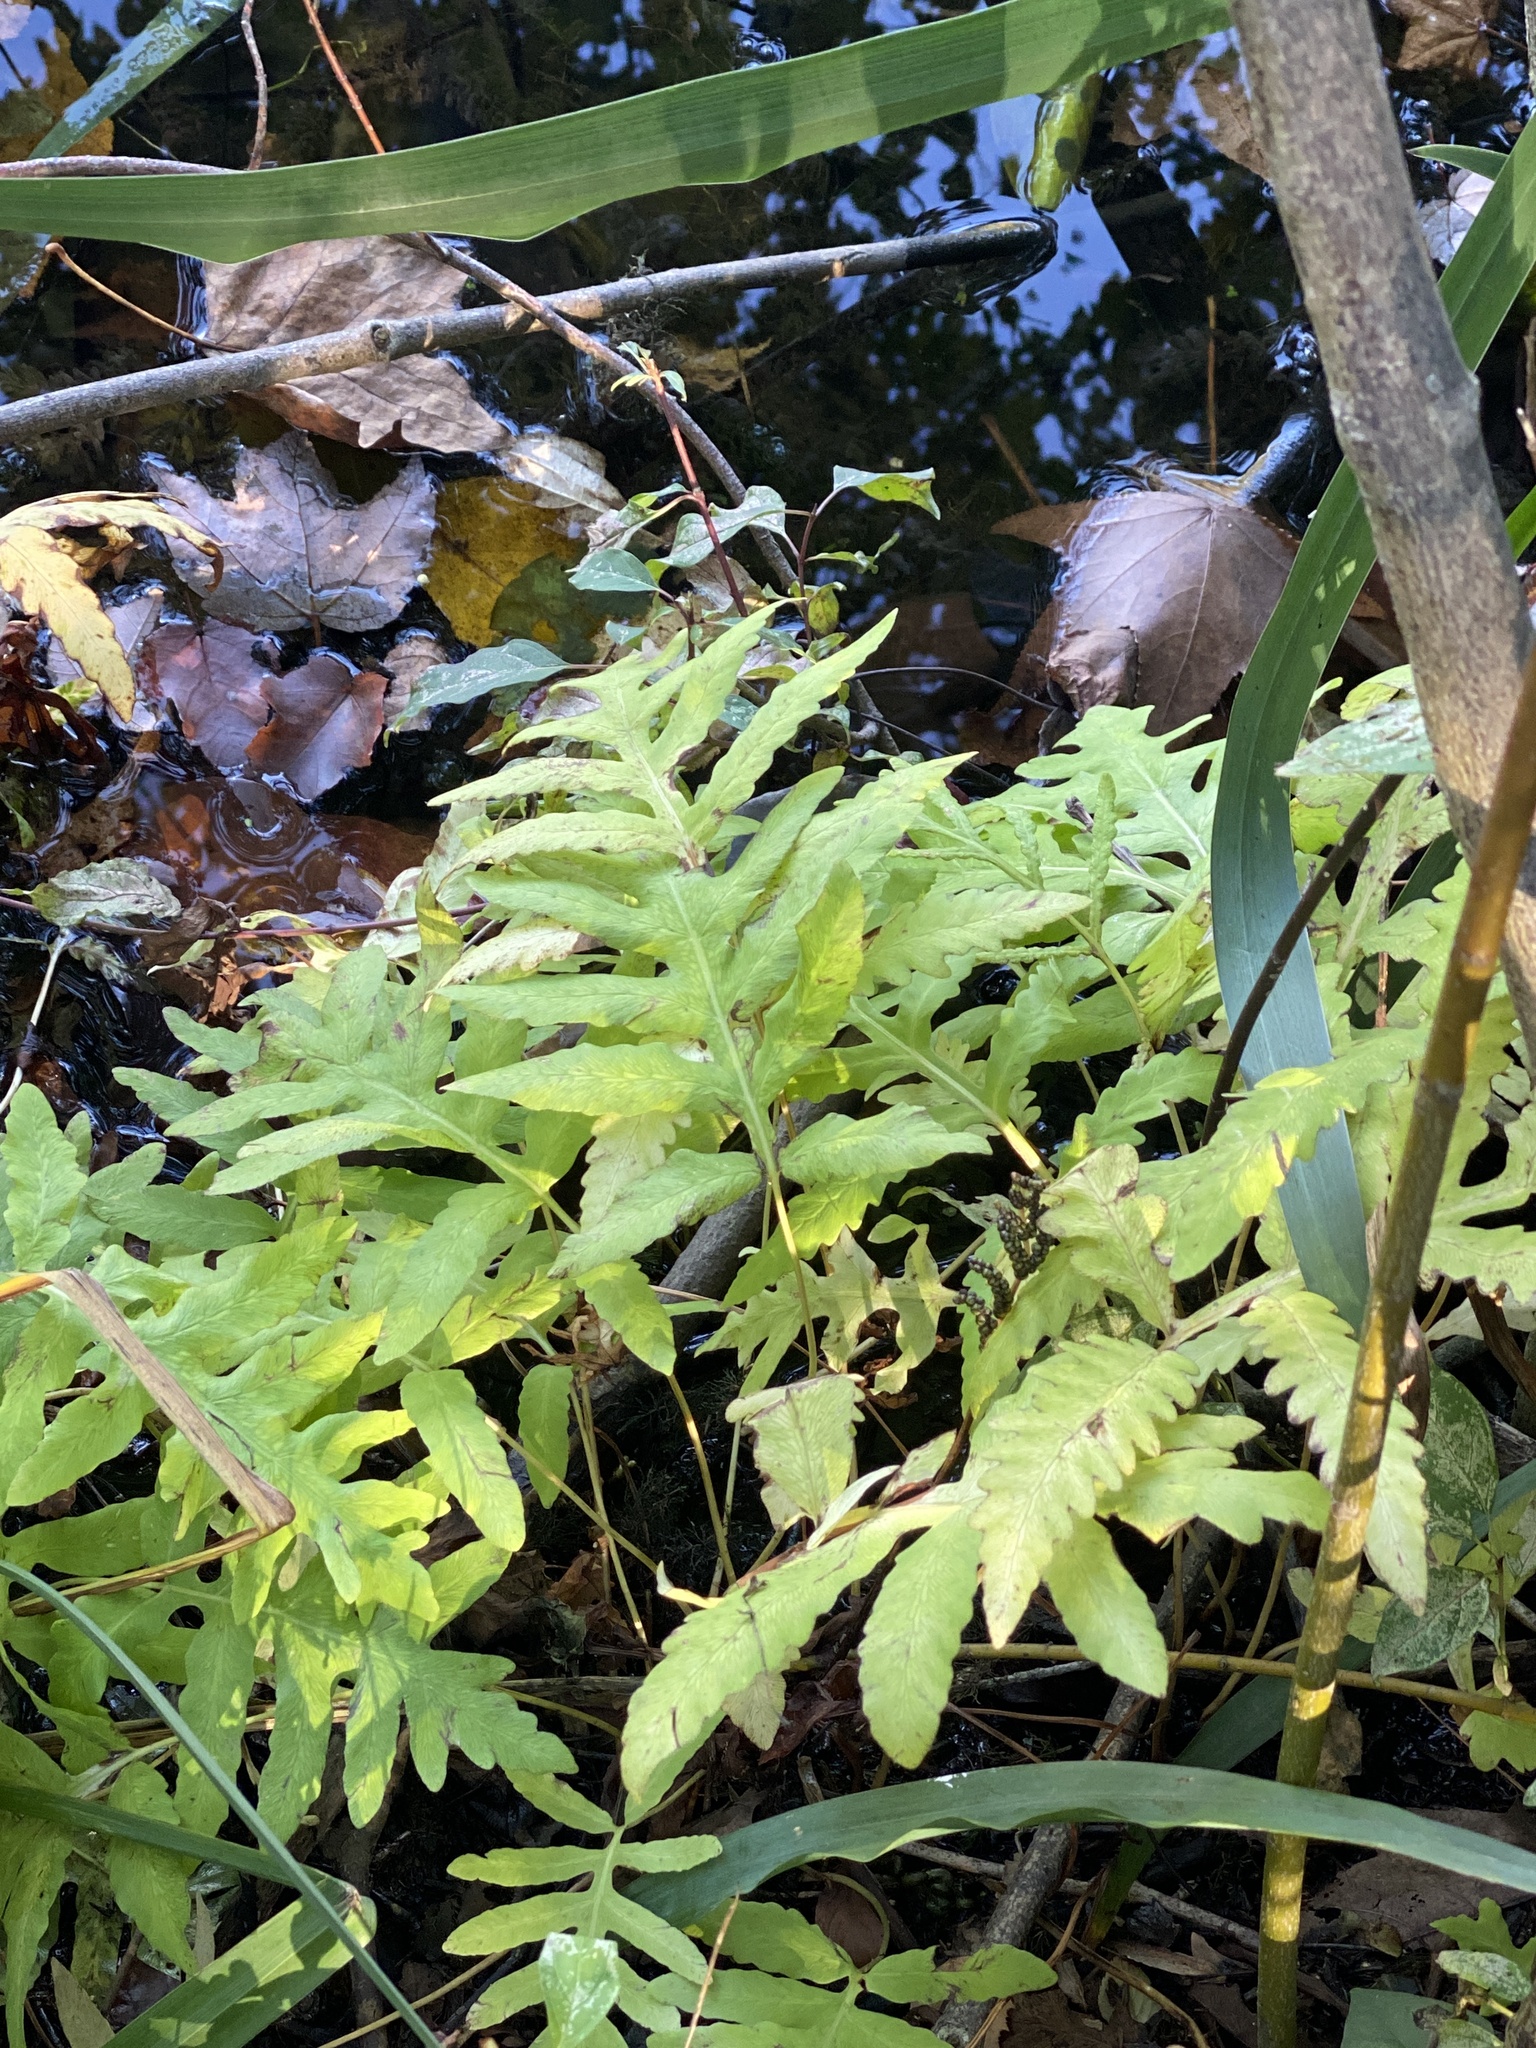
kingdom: Plantae
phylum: Tracheophyta
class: Polypodiopsida
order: Polypodiales
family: Onocleaceae
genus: Onoclea
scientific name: Onoclea sensibilis
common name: Sensitive fern
